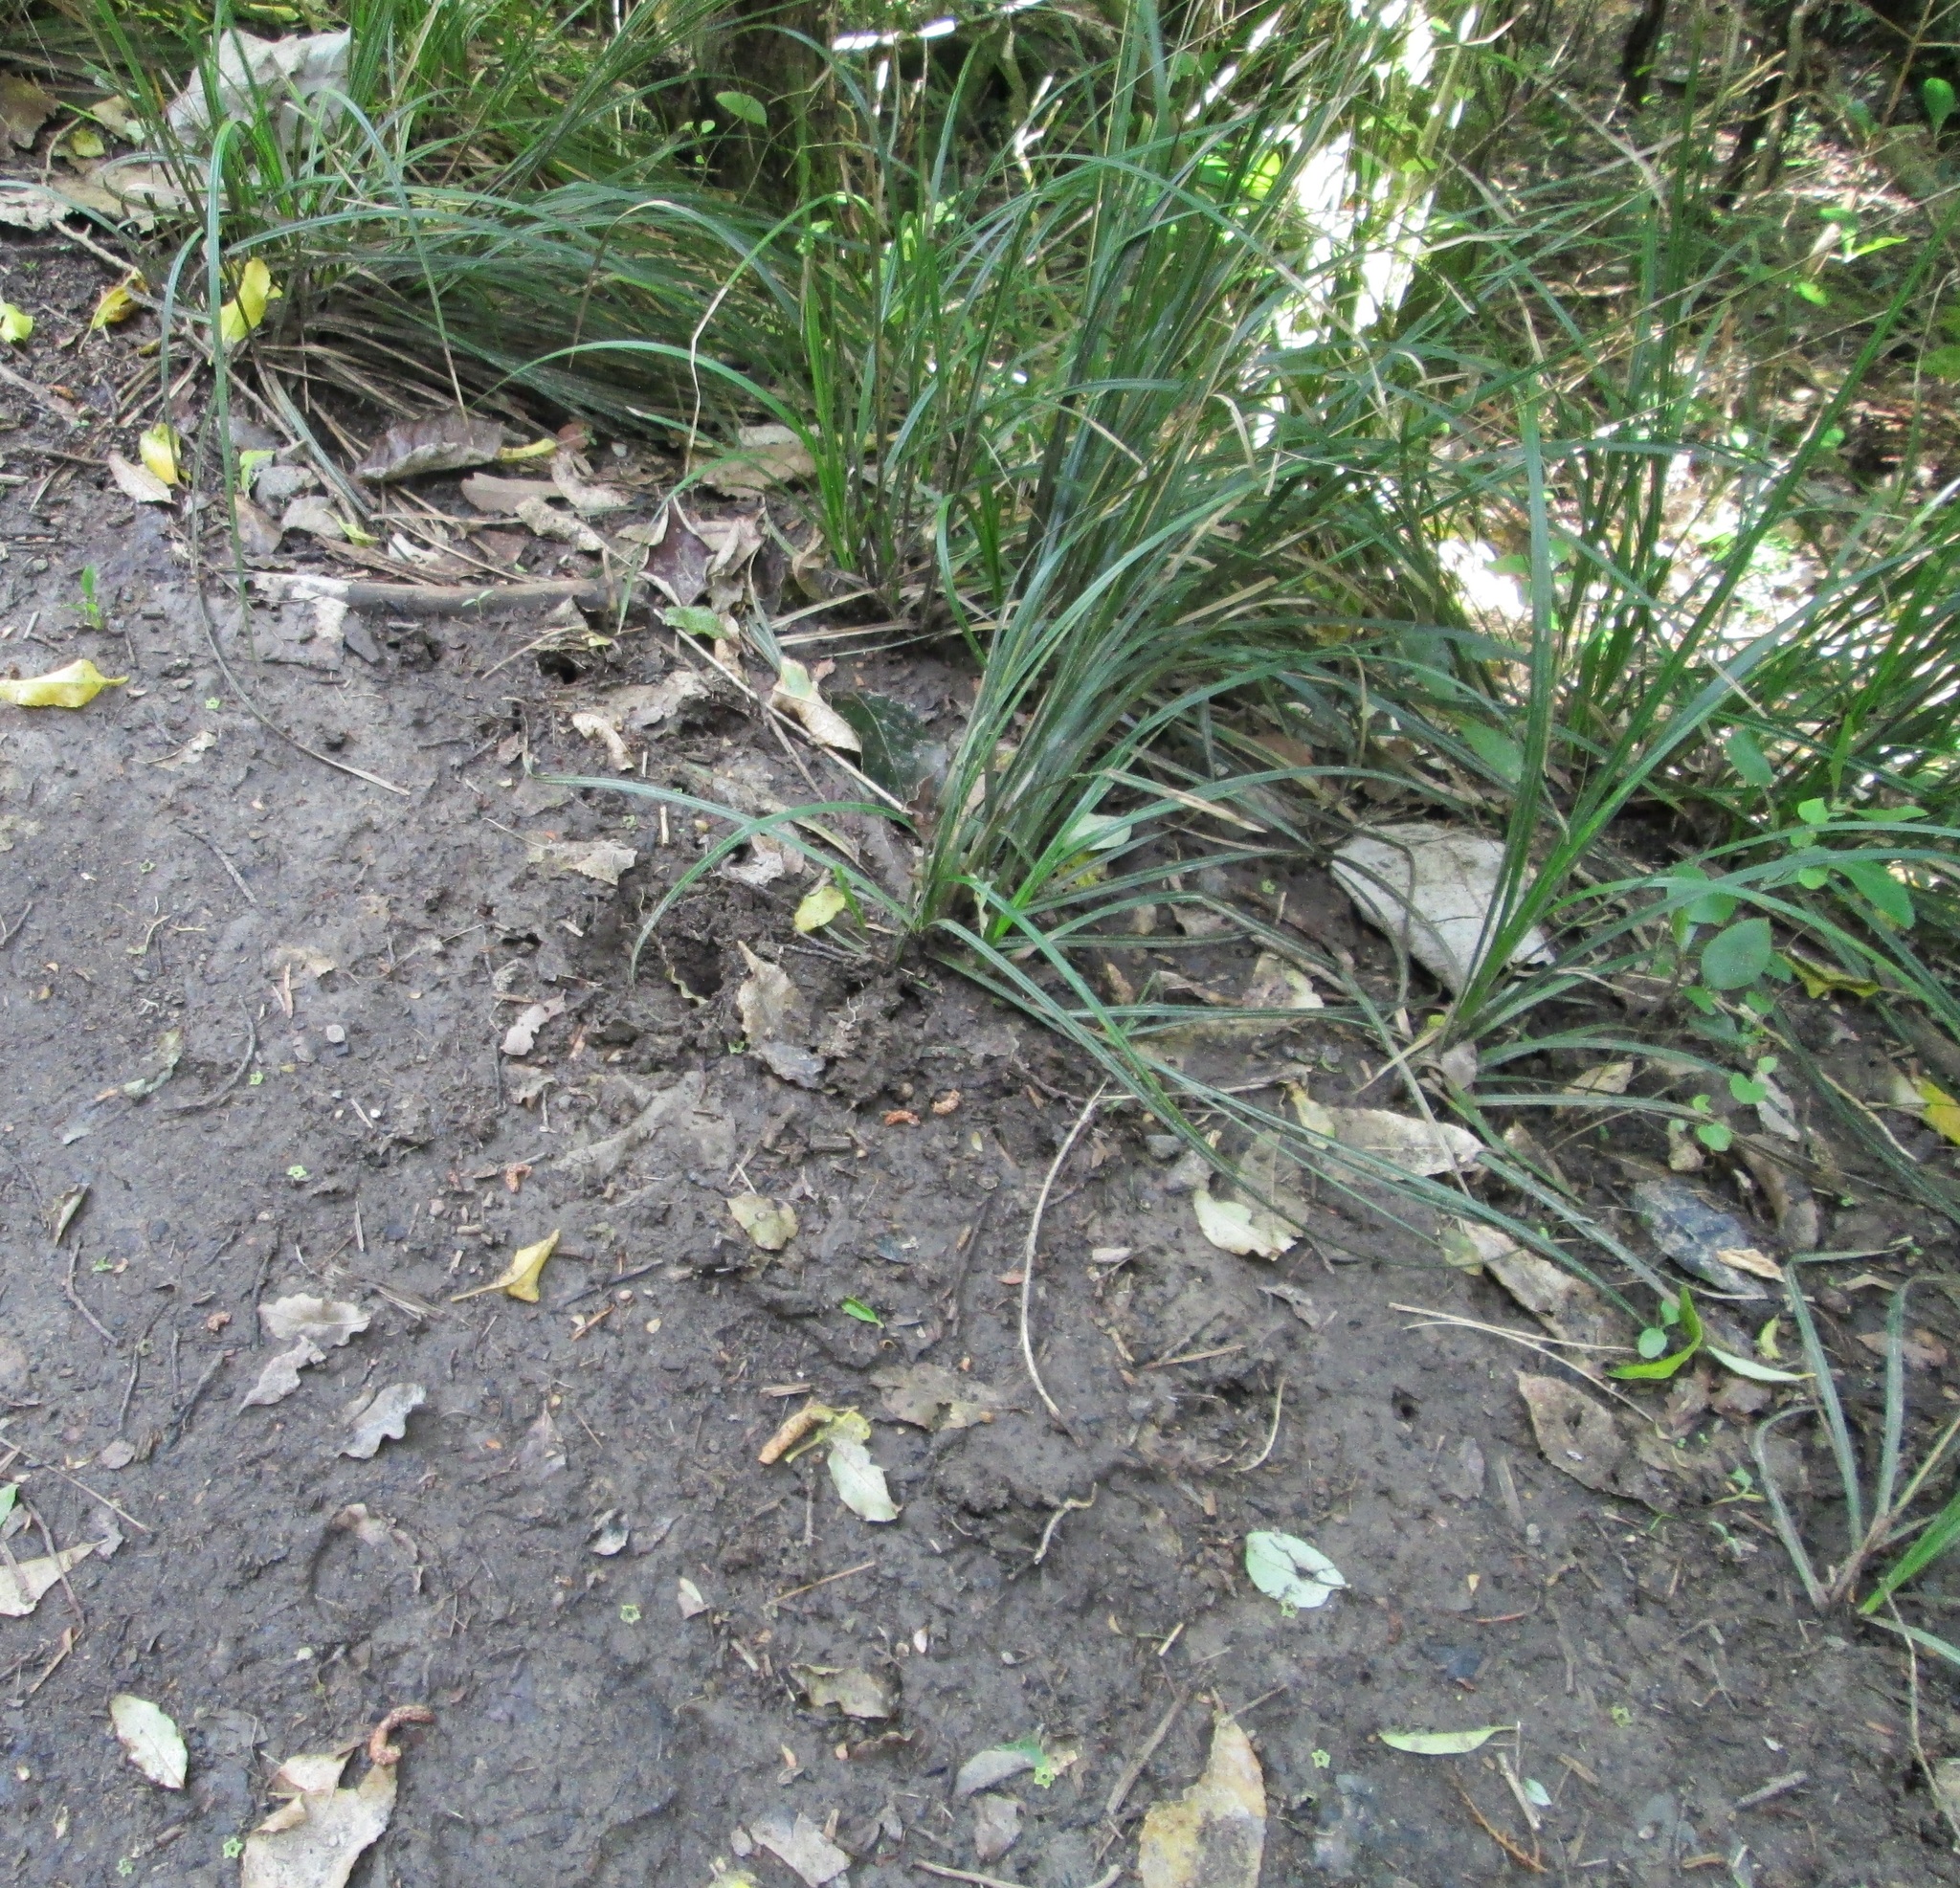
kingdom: Animalia
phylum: Chordata
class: Aves
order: Apterygiformes
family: Apterygidae
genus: Apteryx
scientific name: Apteryx owenii
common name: Little spotted kiwi
